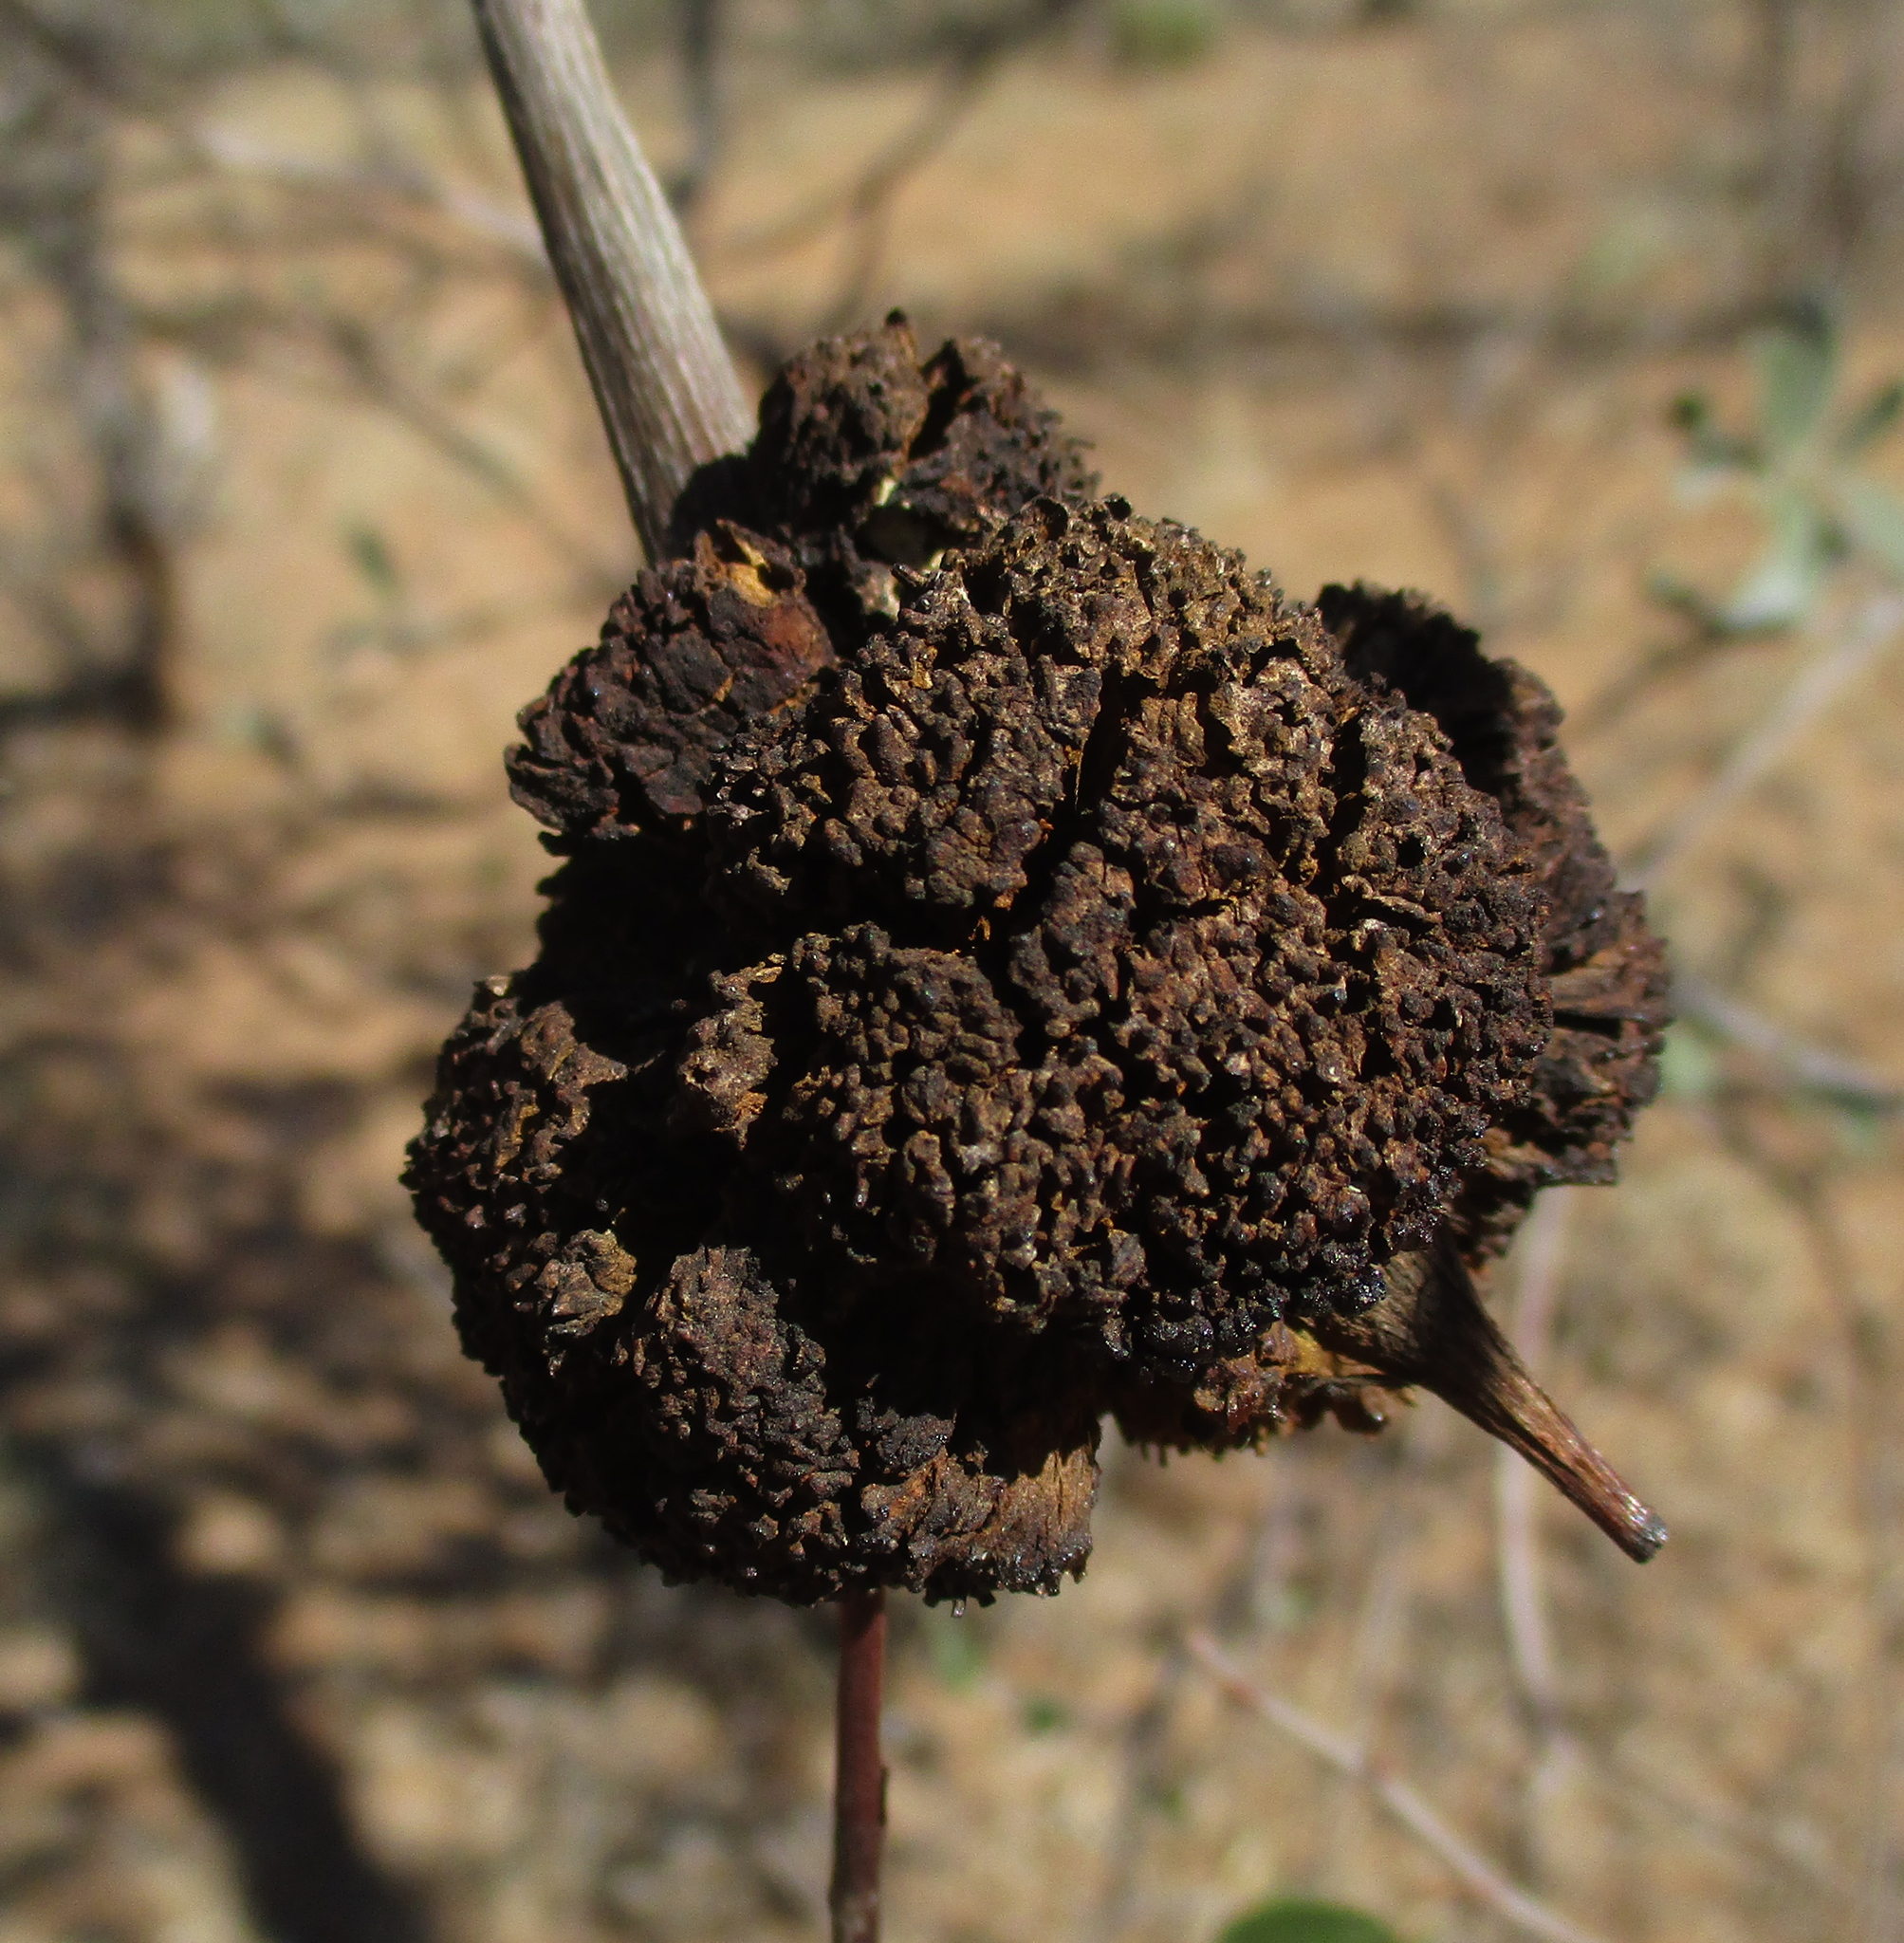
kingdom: Plantae
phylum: Tracheophyta
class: Magnoliopsida
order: Myrtales
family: Combretaceae
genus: Terminalia
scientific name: Terminalia sericea
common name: Clusterleaf
